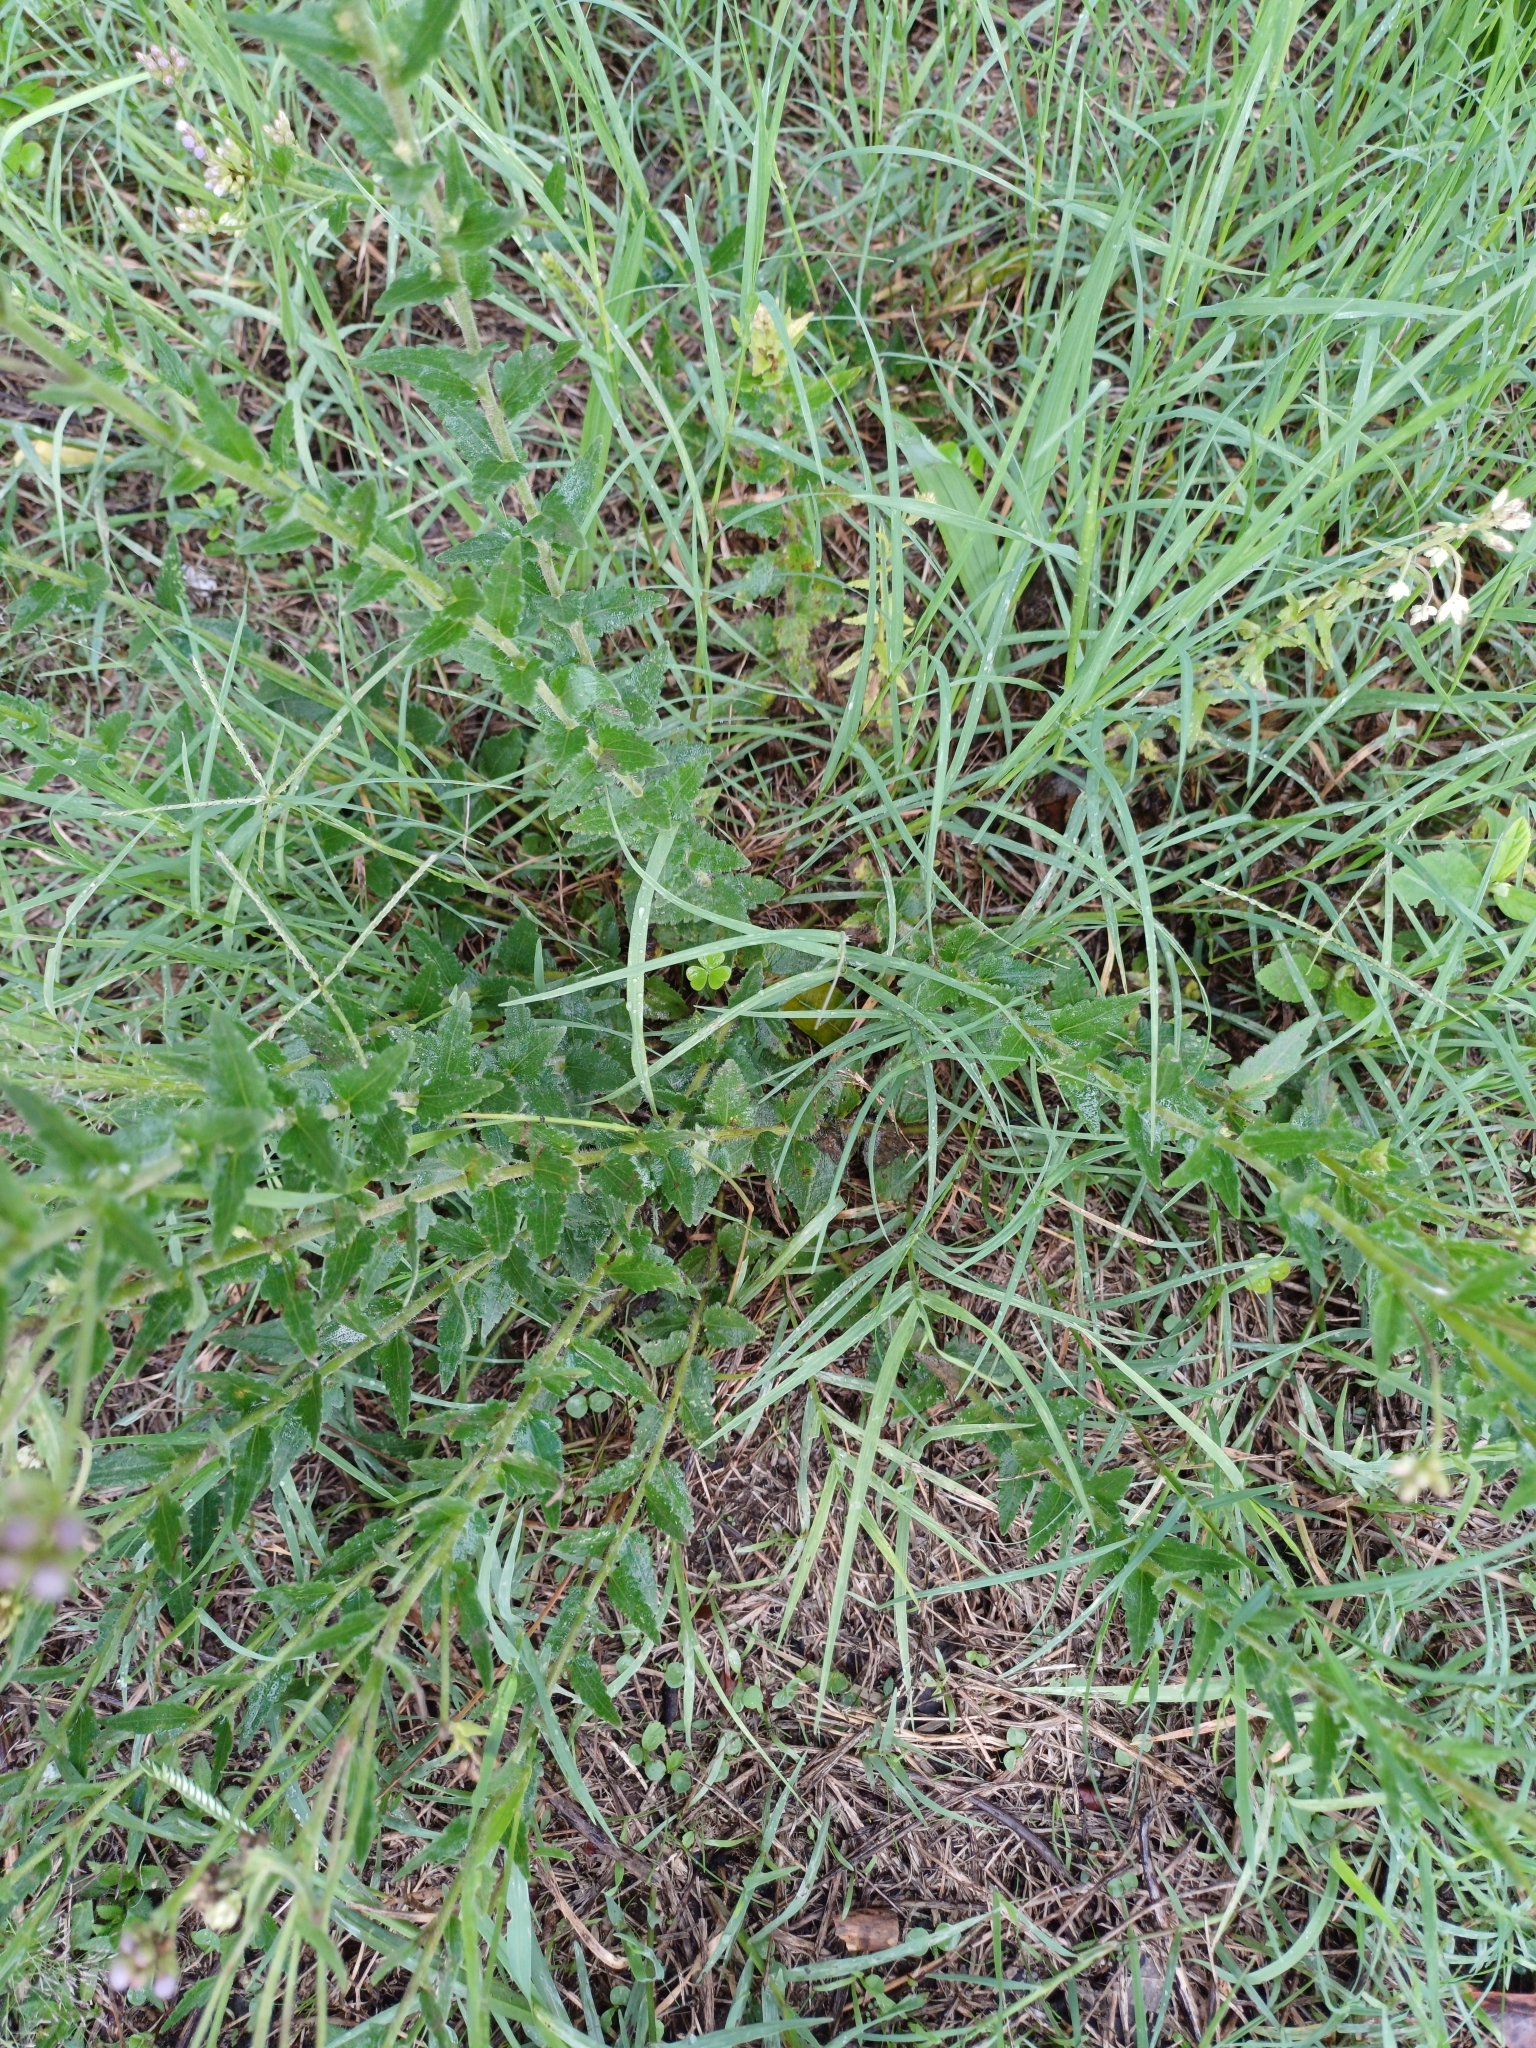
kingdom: Plantae
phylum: Tracheophyta
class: Magnoliopsida
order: Asterales
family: Asteraceae
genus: Chromolaena
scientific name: Chromolaena hirsuta
